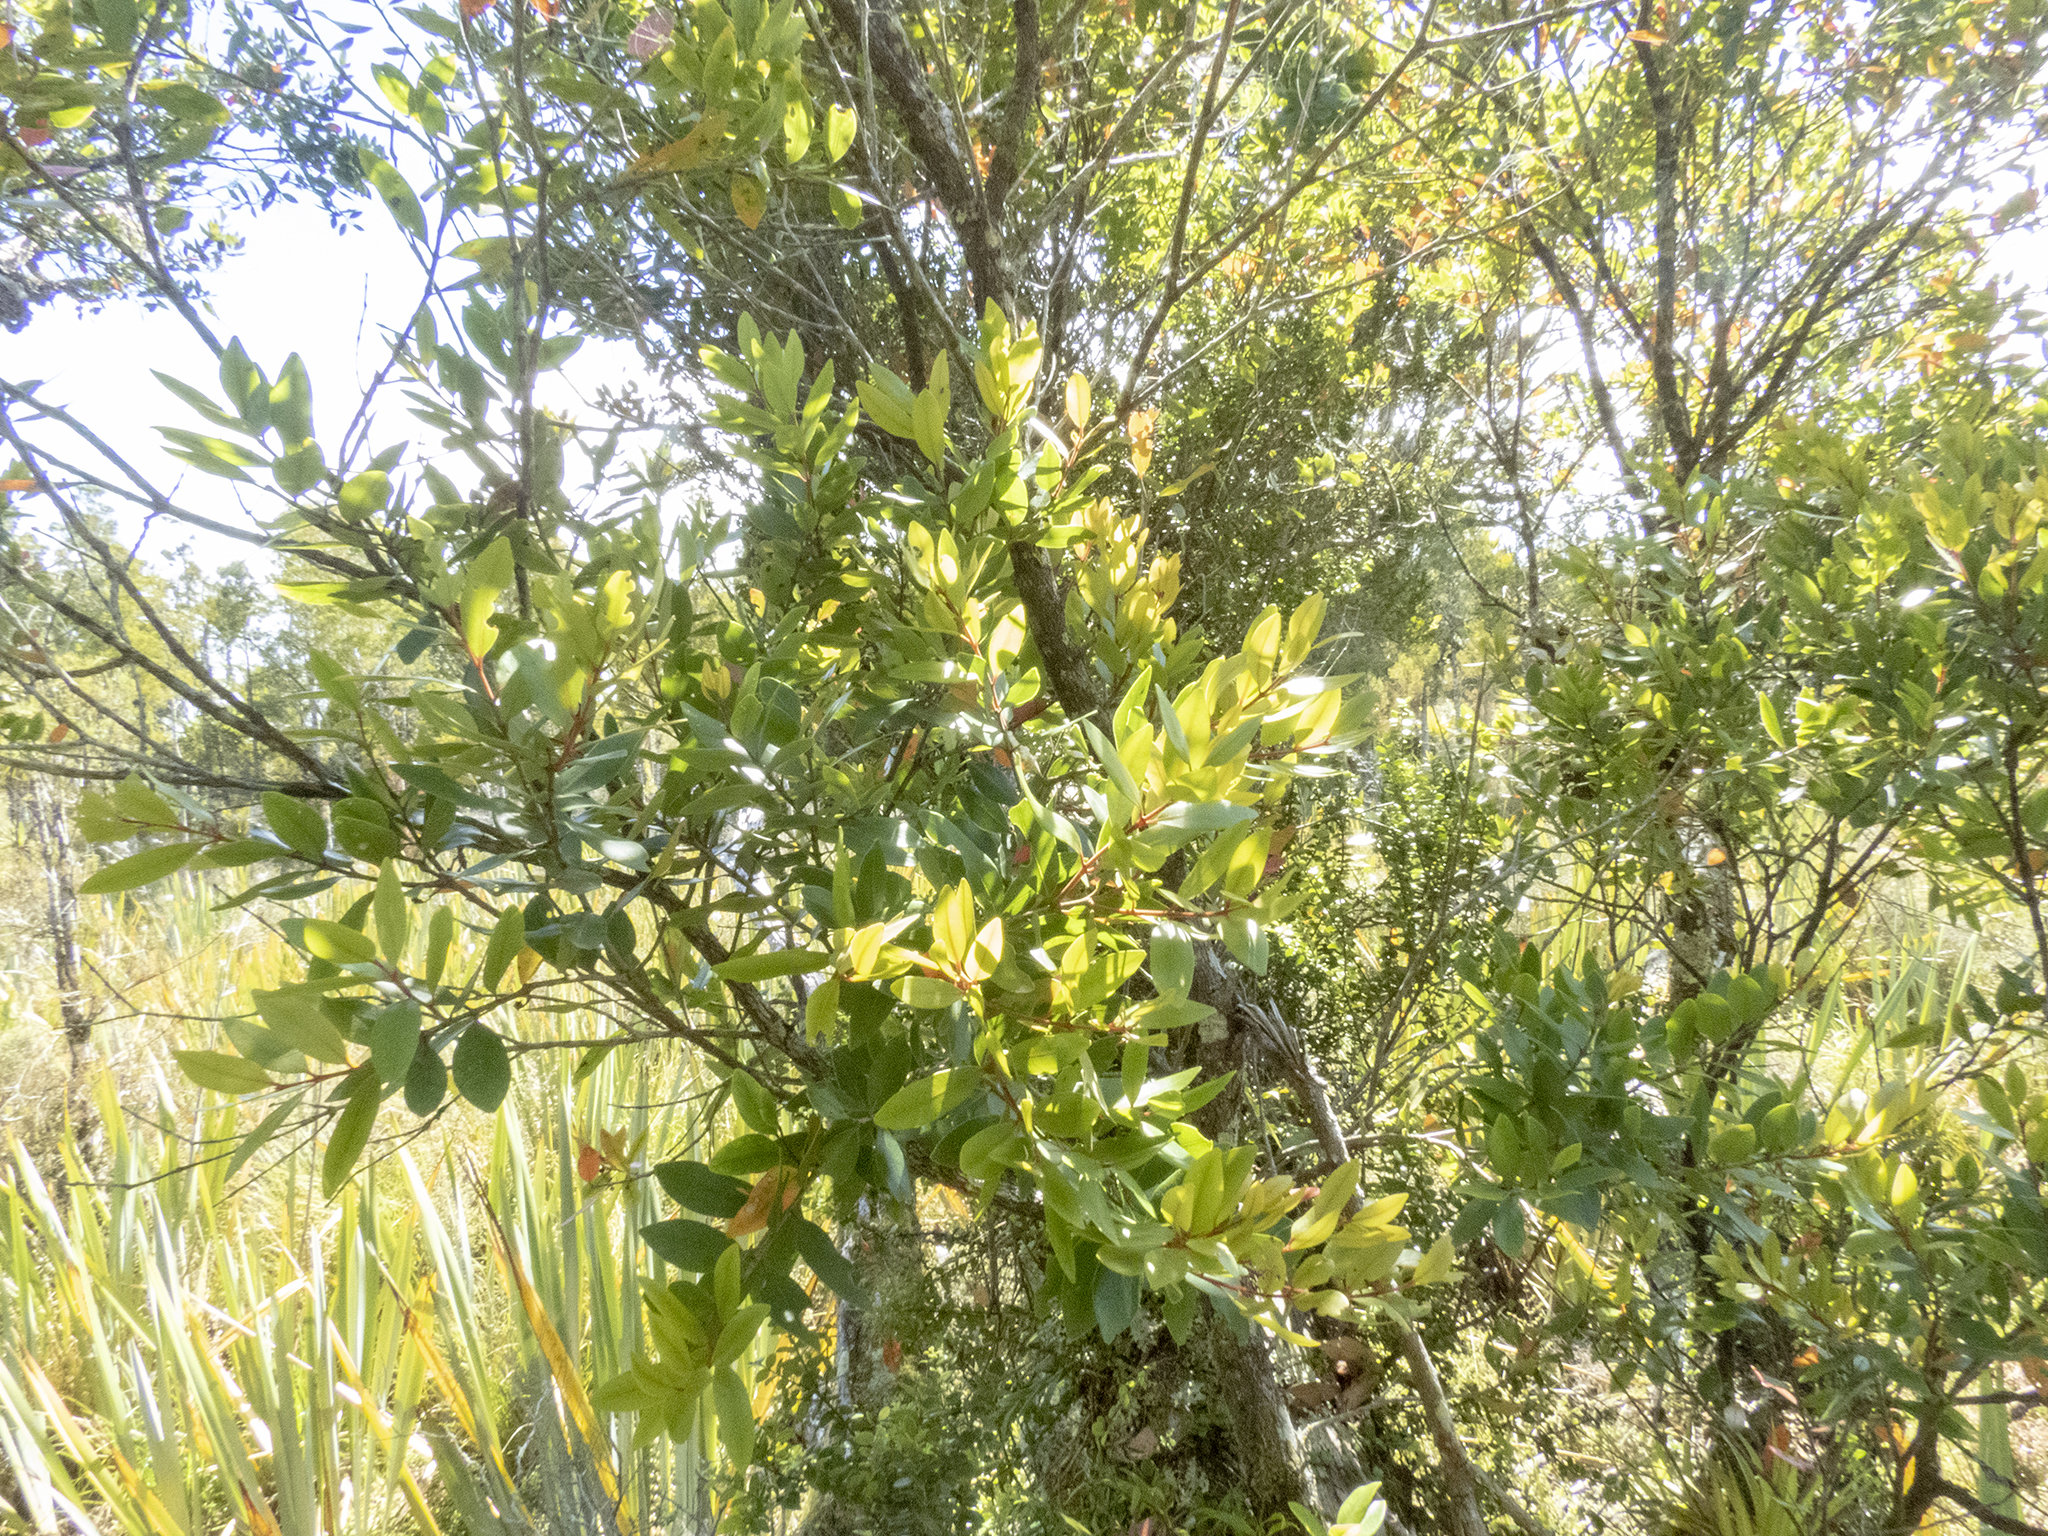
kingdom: Plantae
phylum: Tracheophyta
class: Magnoliopsida
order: Myrtales
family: Myrtaceae
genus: Metrosideros
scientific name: Metrosideros robusta
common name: Northern rata
